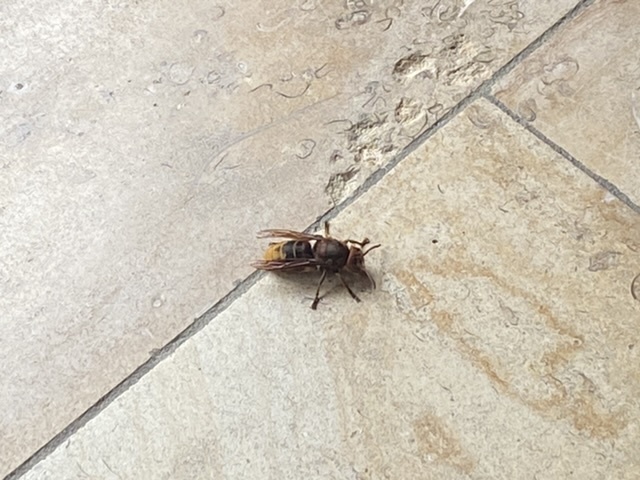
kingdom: Animalia
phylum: Arthropoda
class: Insecta
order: Hymenoptera
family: Vespidae
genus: Vespa
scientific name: Vespa crabro
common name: Hornet
